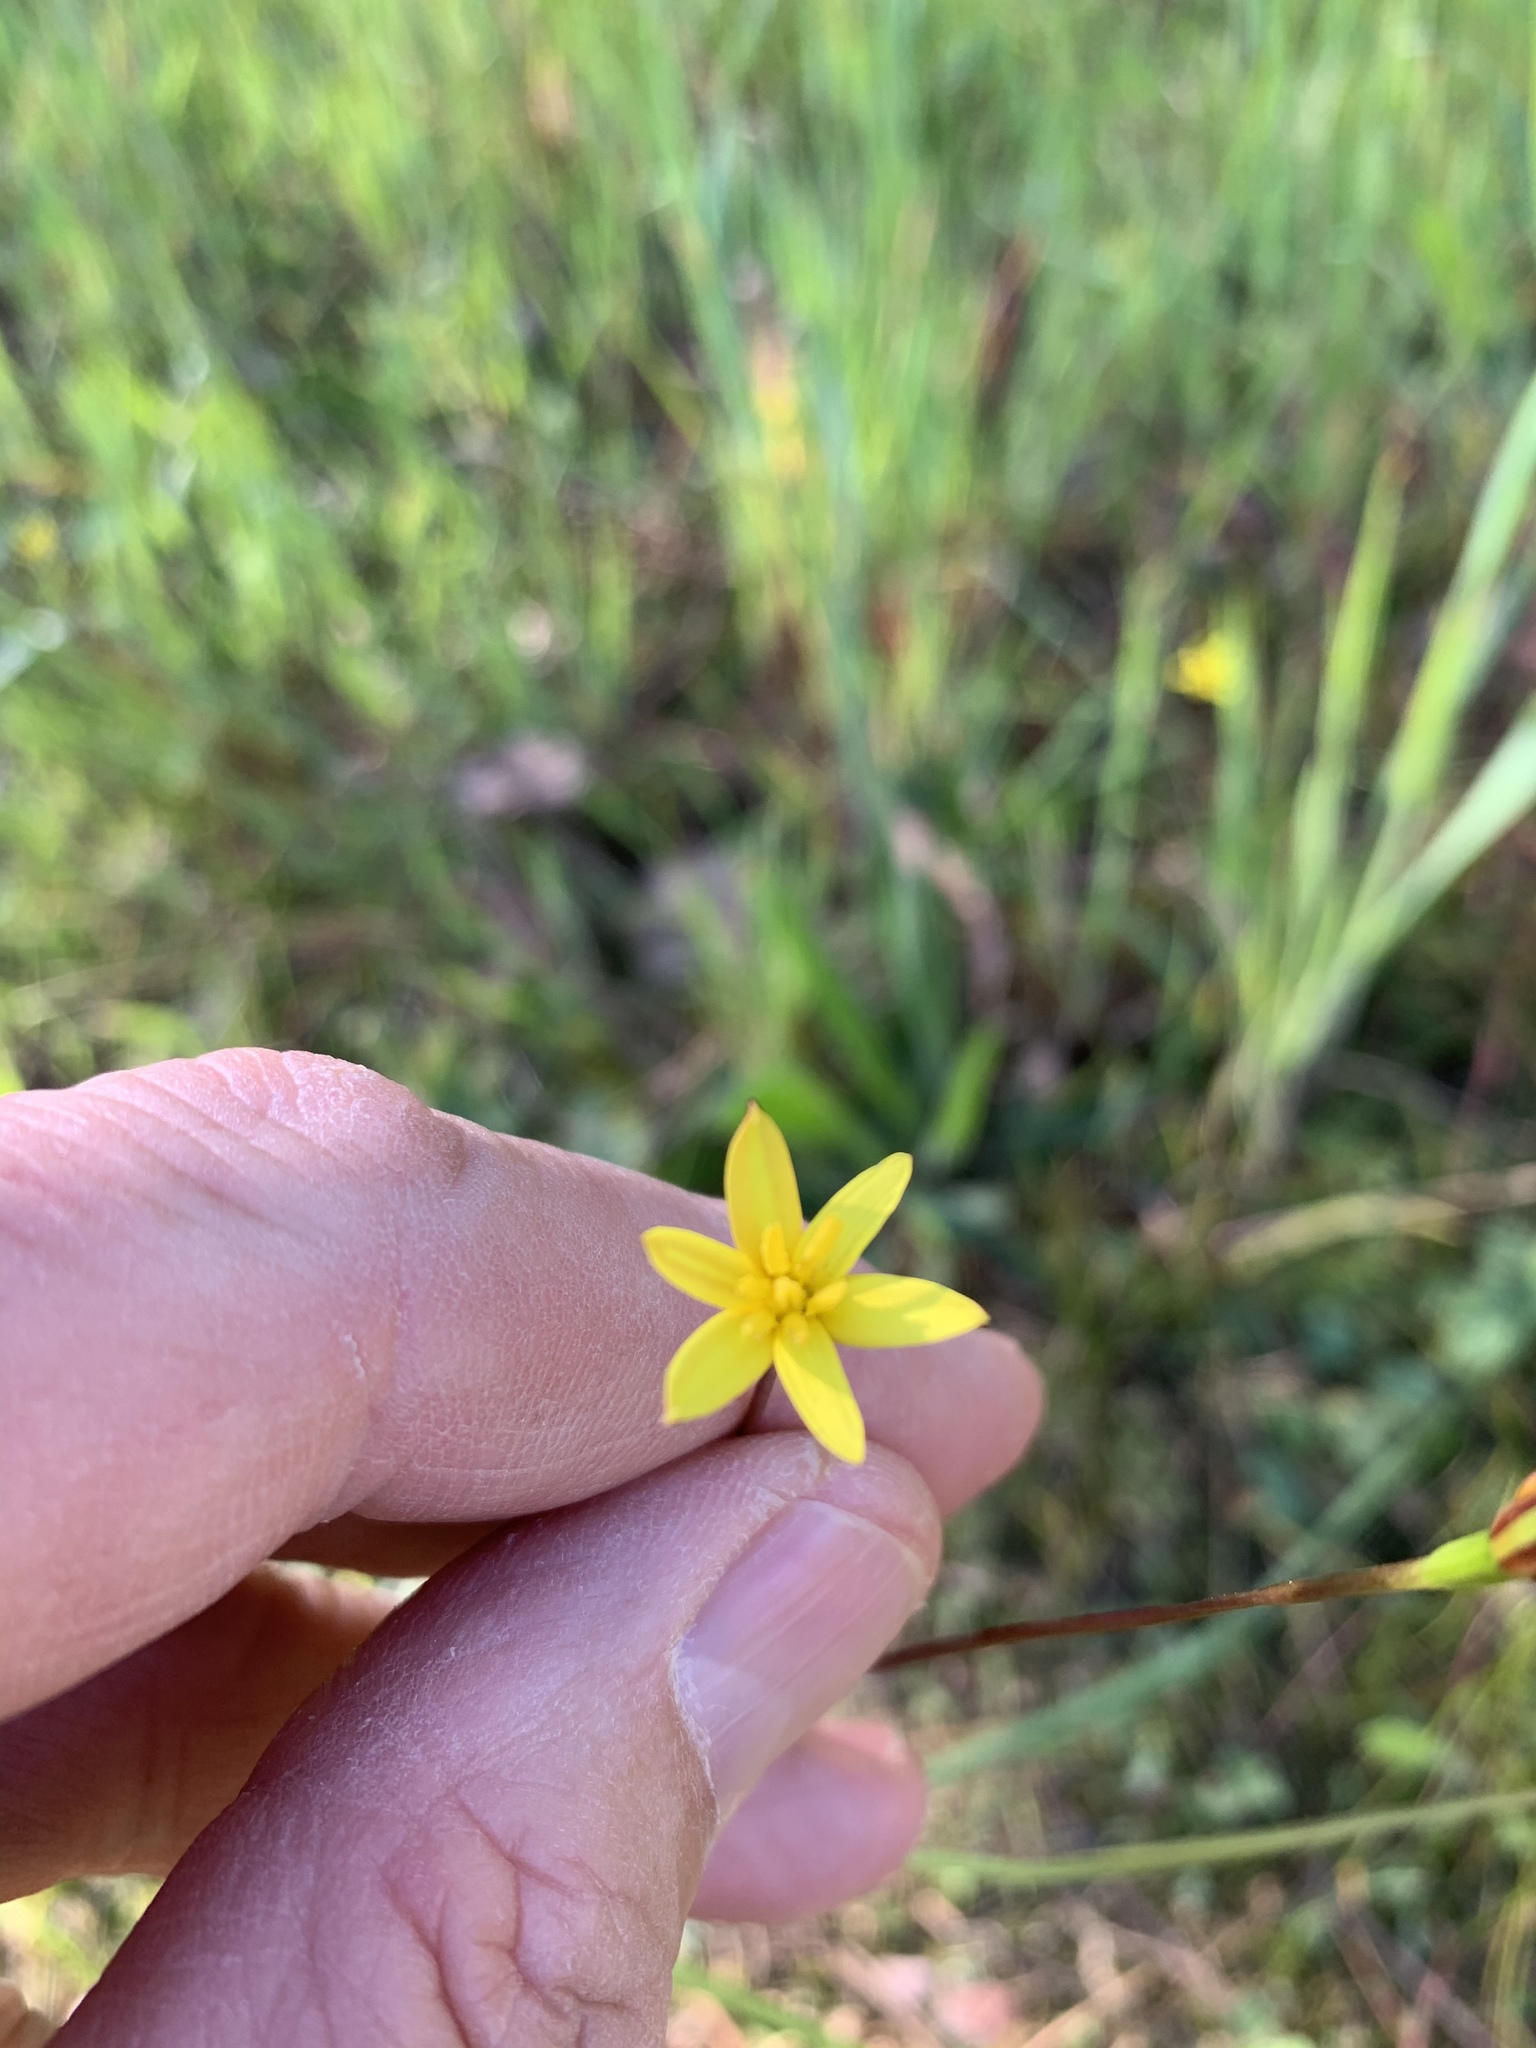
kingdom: Plantae
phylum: Tracheophyta
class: Liliopsida
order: Asparagales
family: Hypoxidaceae
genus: Pauridia
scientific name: Pauridia affinis
